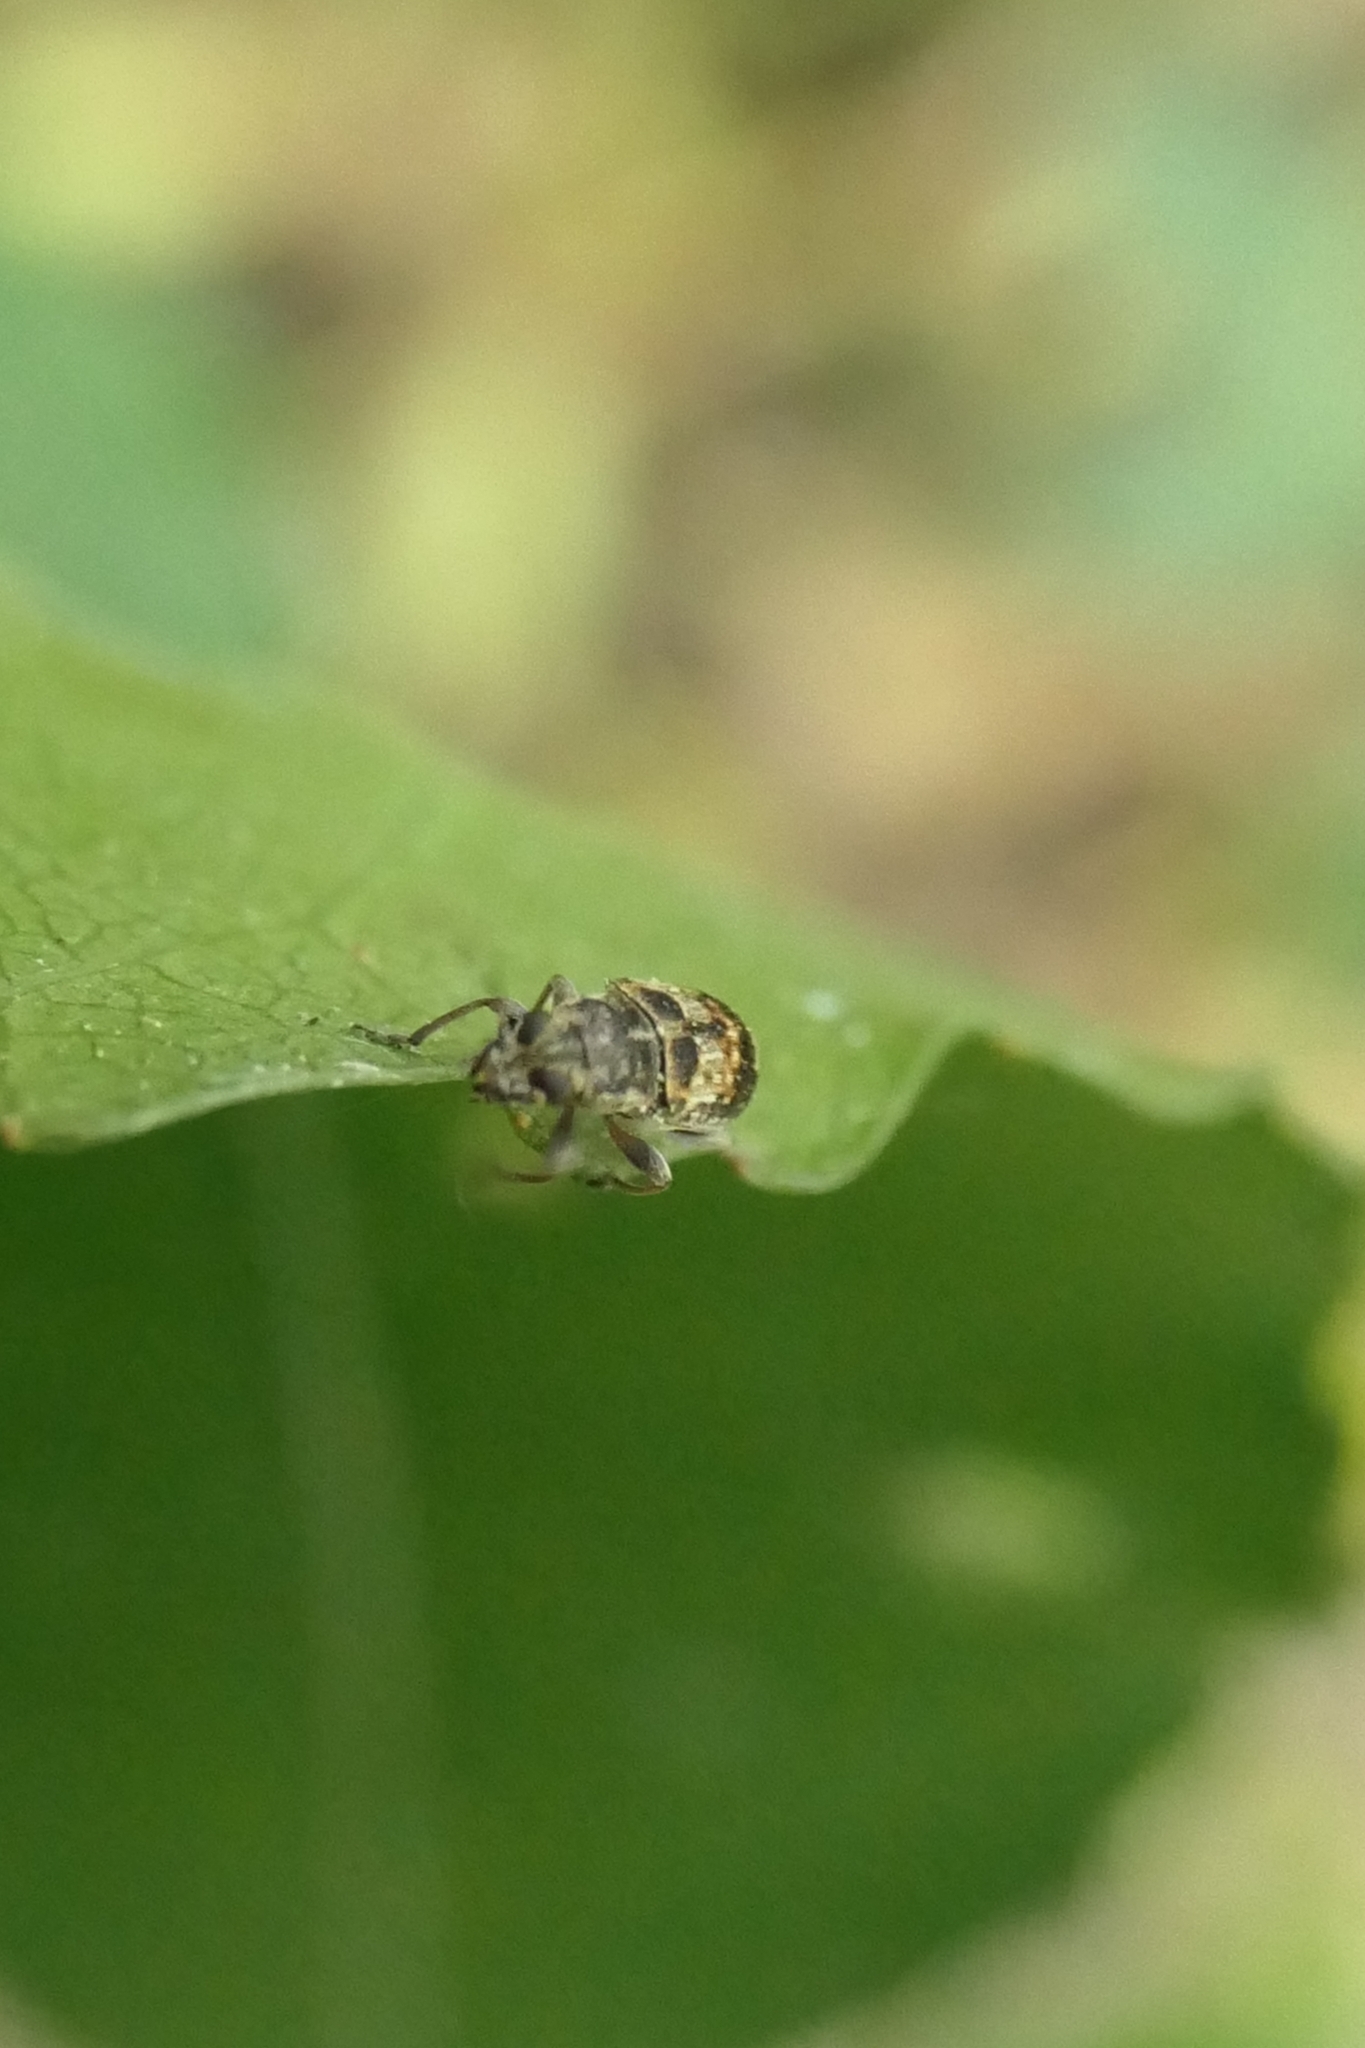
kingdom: Animalia
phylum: Arthropoda
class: Insecta
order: Coleoptera
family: Anthribidae
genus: Etnalis
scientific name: Etnalis spinicollis
